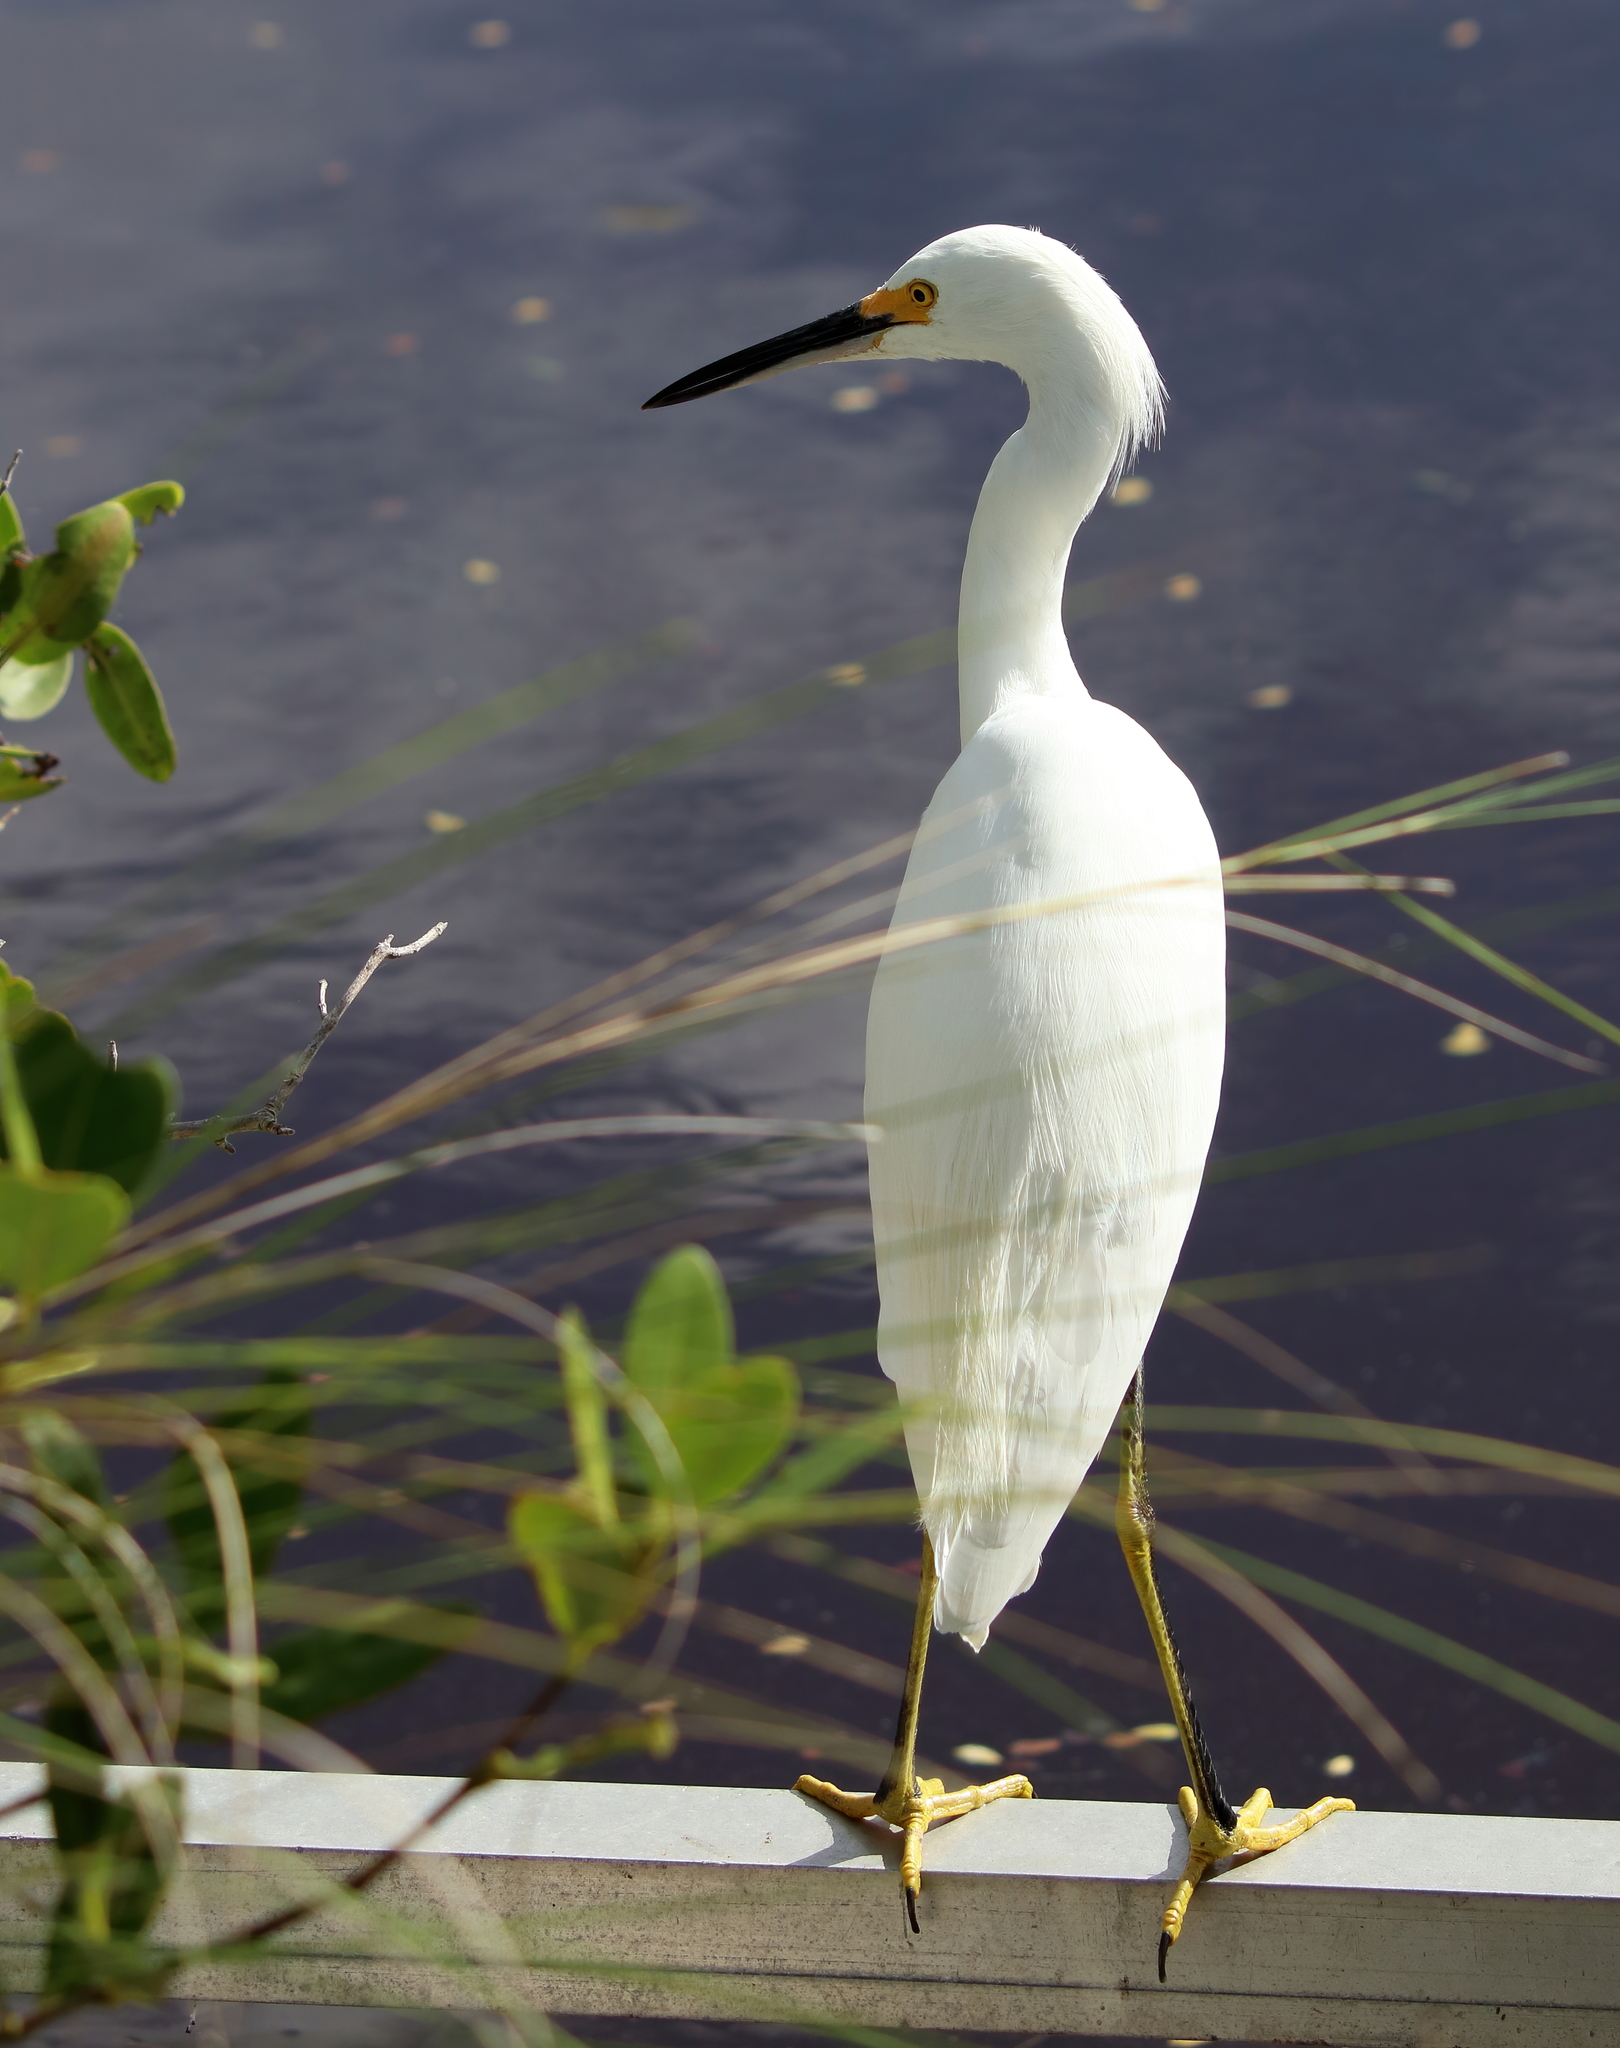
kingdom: Animalia
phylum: Chordata
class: Aves
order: Pelecaniformes
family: Ardeidae
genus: Egretta
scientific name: Egretta thula
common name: Snowy egret
